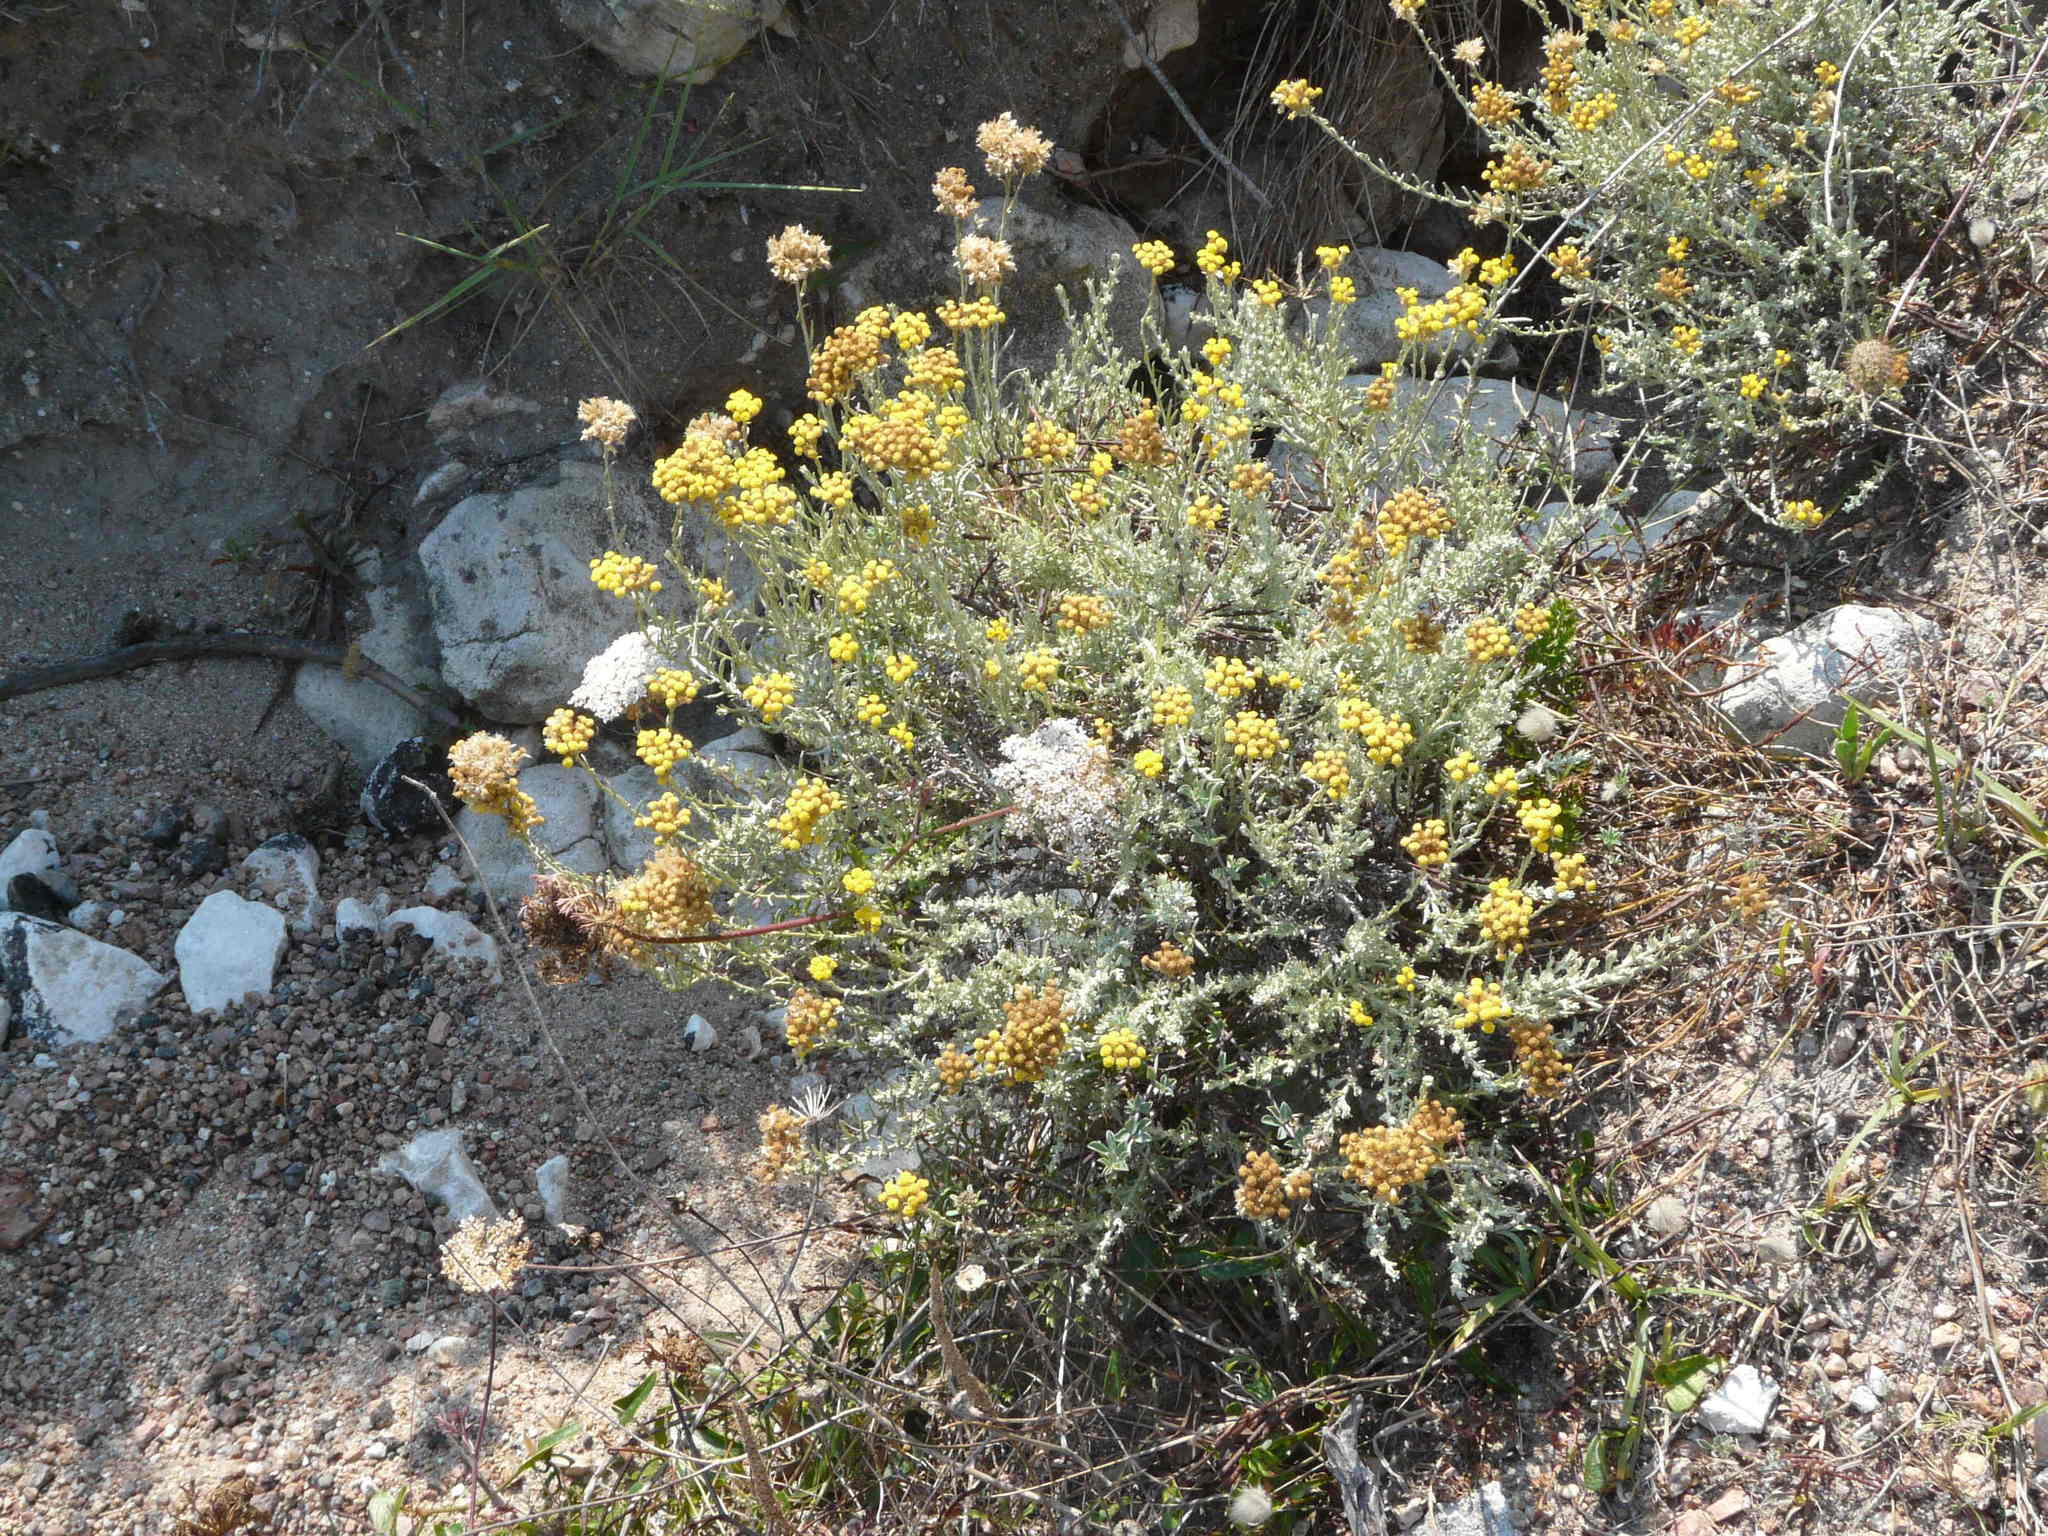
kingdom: Plantae
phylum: Tracheophyta
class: Magnoliopsida
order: Asterales
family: Asteraceae
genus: Helichrysum
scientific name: Helichrysum italicum
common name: Curryplant
